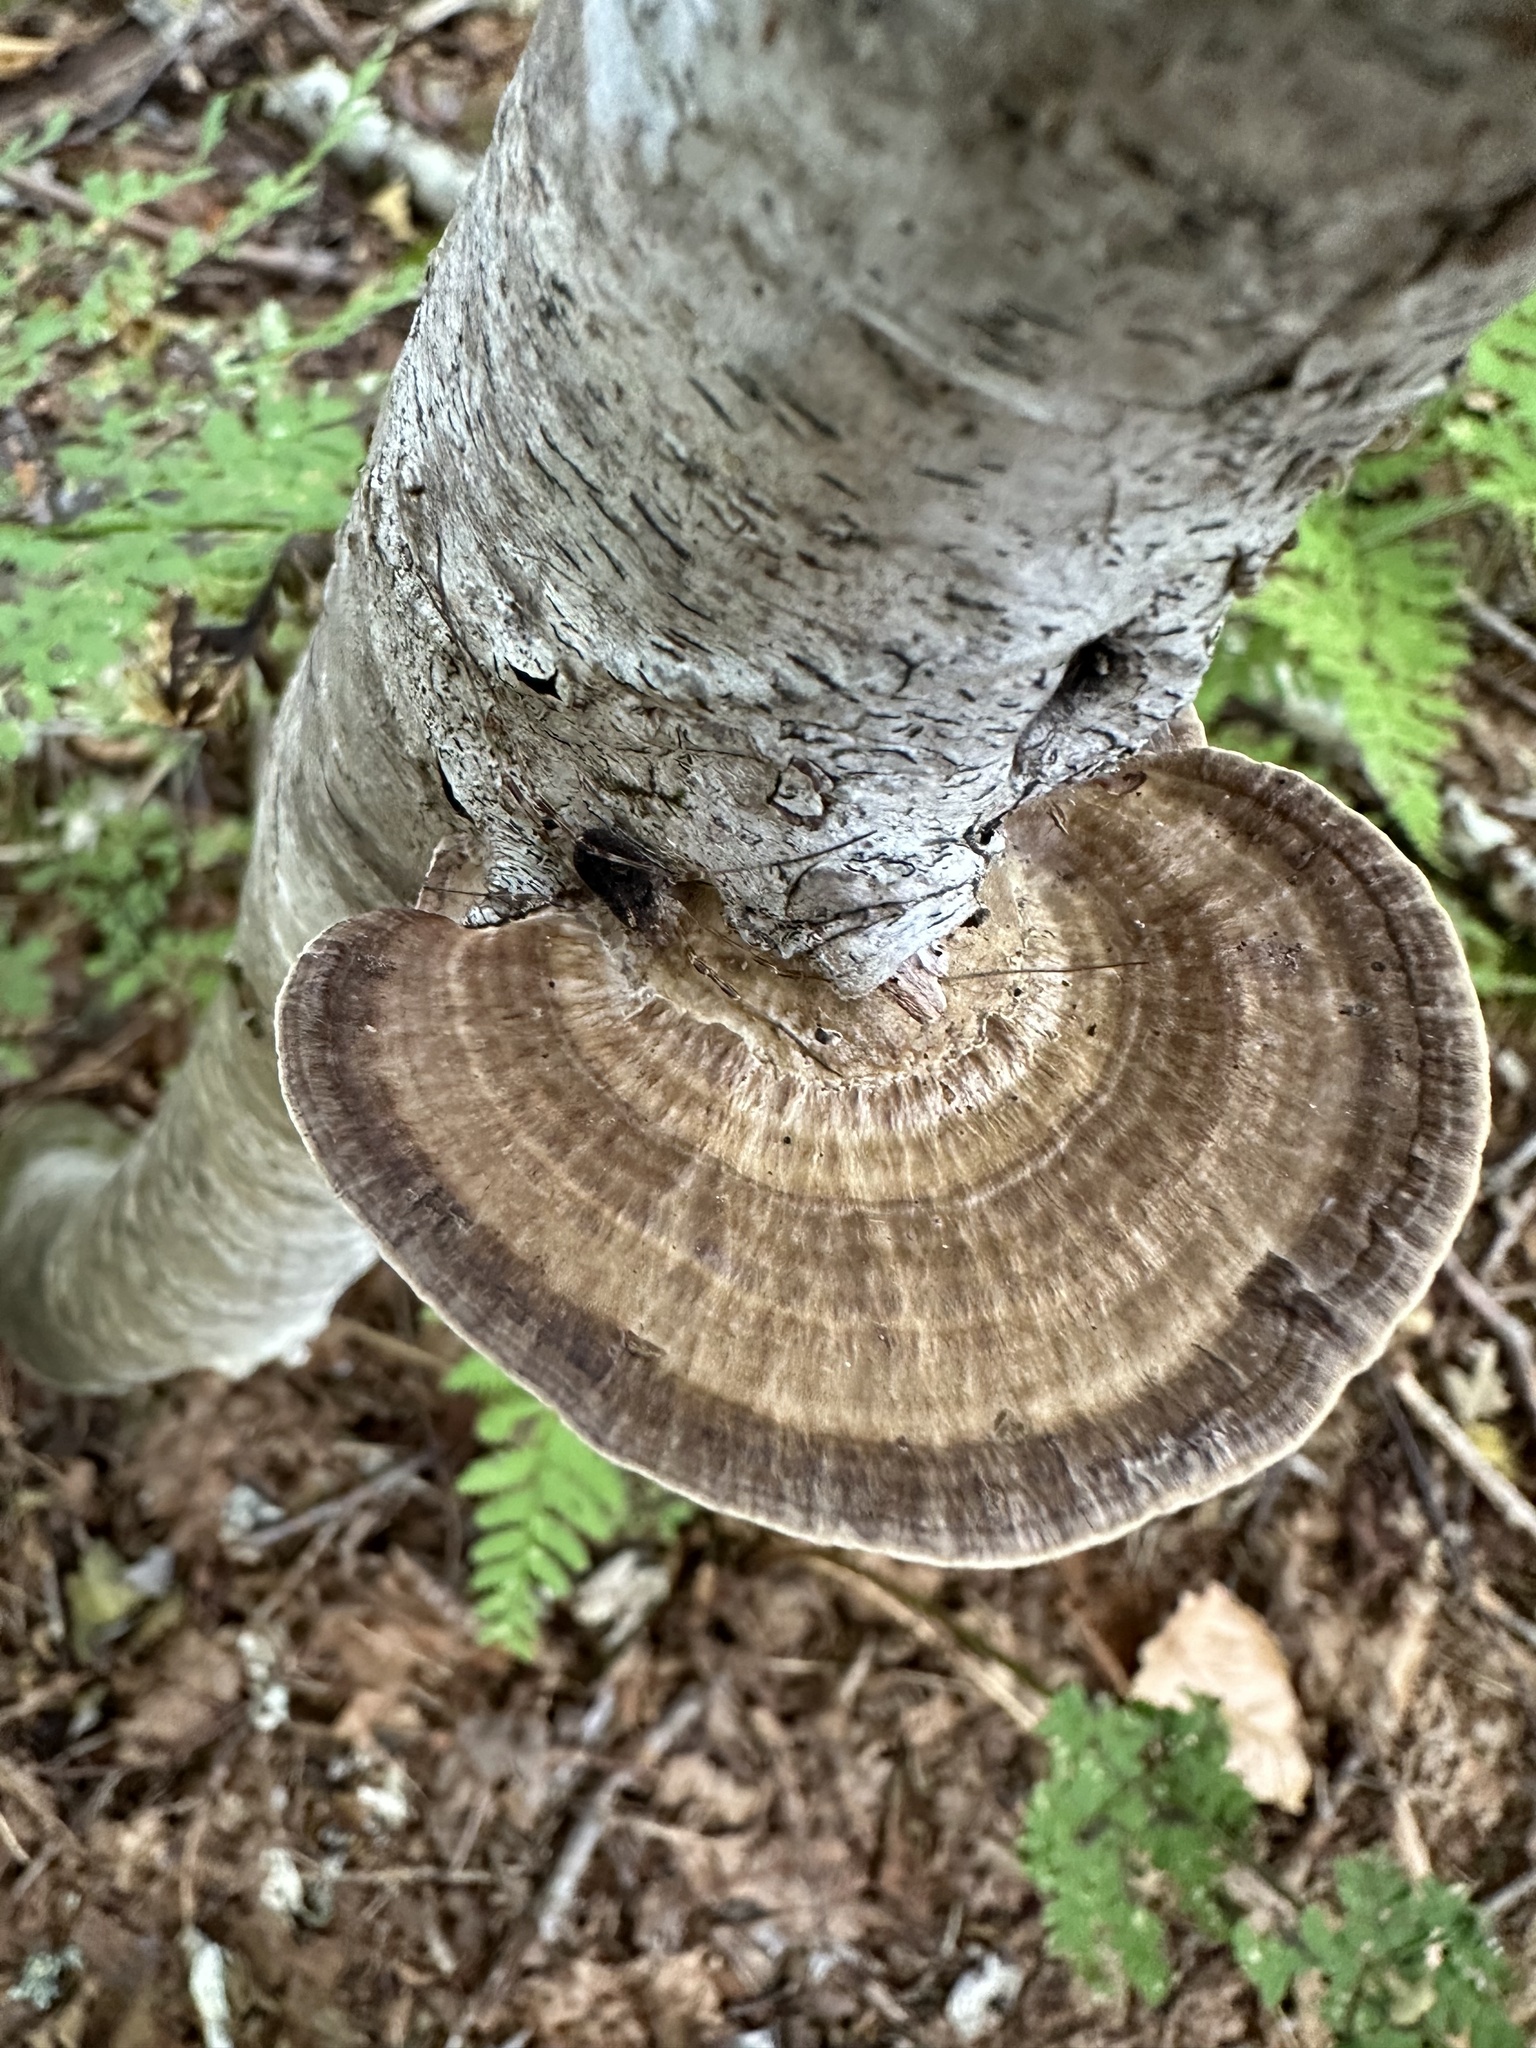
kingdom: Fungi
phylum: Basidiomycota
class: Agaricomycetes
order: Polyporales
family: Polyporaceae
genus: Daedaleopsis
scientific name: Daedaleopsis confragosa
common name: Blushing bracket
